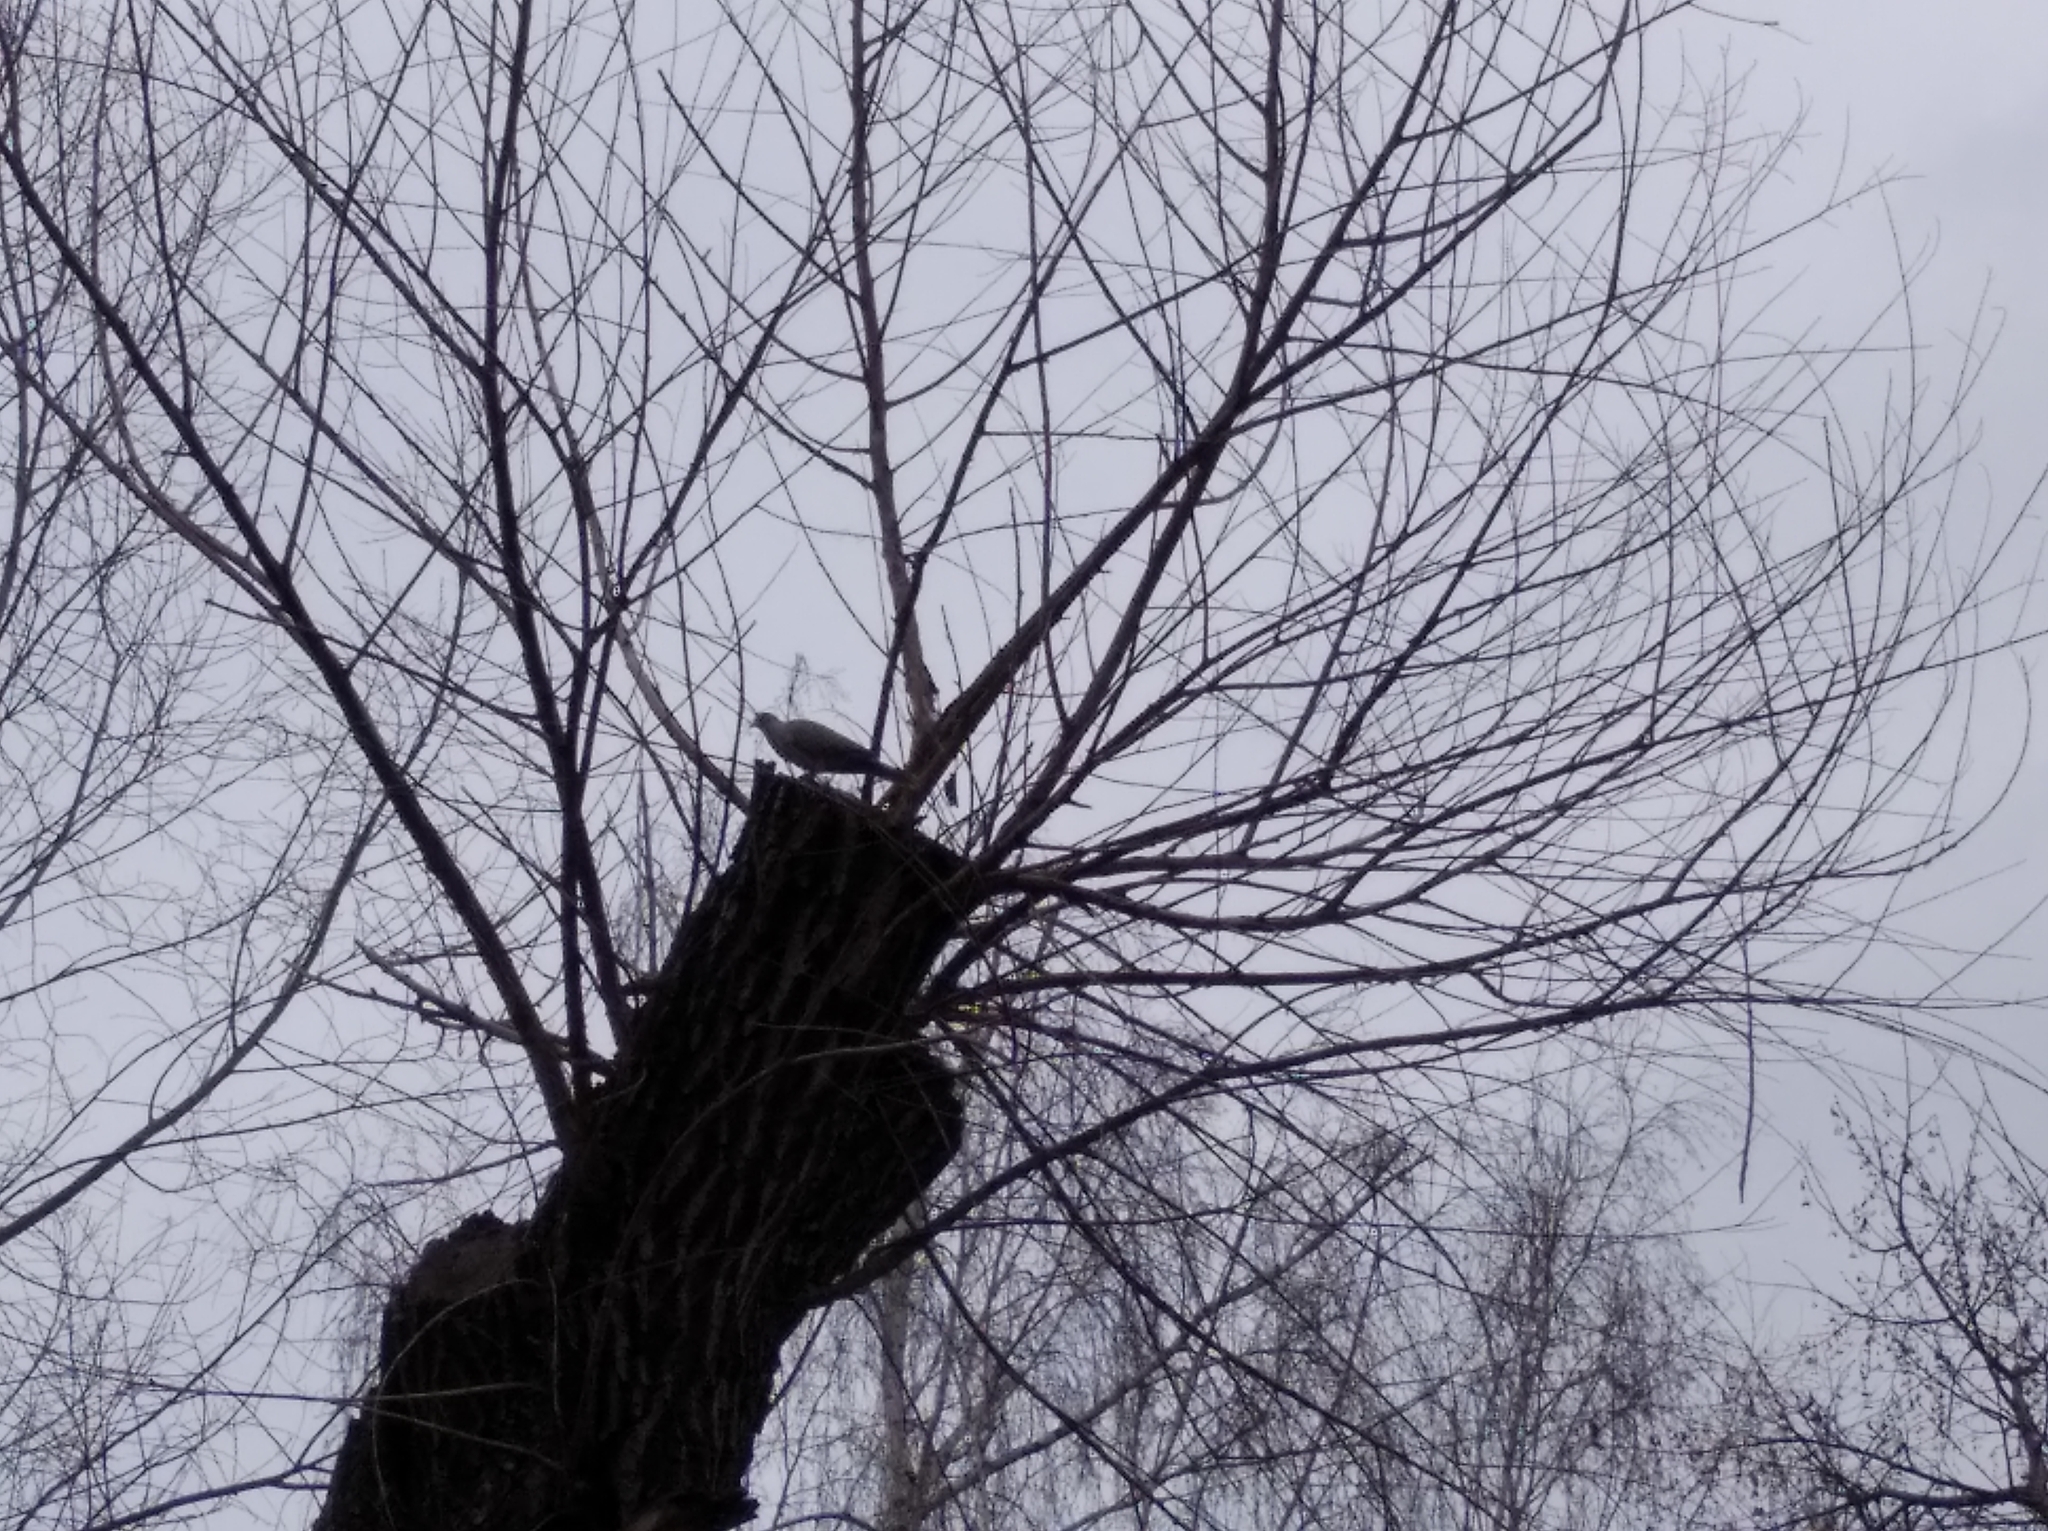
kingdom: Animalia
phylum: Chordata
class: Aves
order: Columbiformes
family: Columbidae
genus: Streptopelia
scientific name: Streptopelia decaocto
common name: Eurasian collared dove
